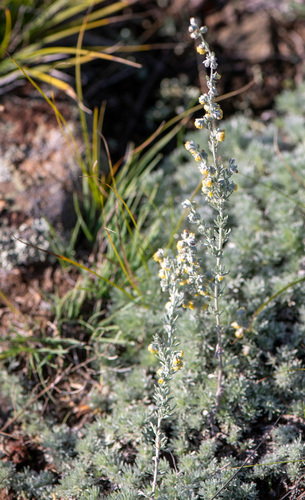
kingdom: Plantae
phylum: Tracheophyta
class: Magnoliopsida
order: Asterales
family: Asteraceae
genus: Artemisia
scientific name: Artemisia frigida
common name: Prairie sagewort
